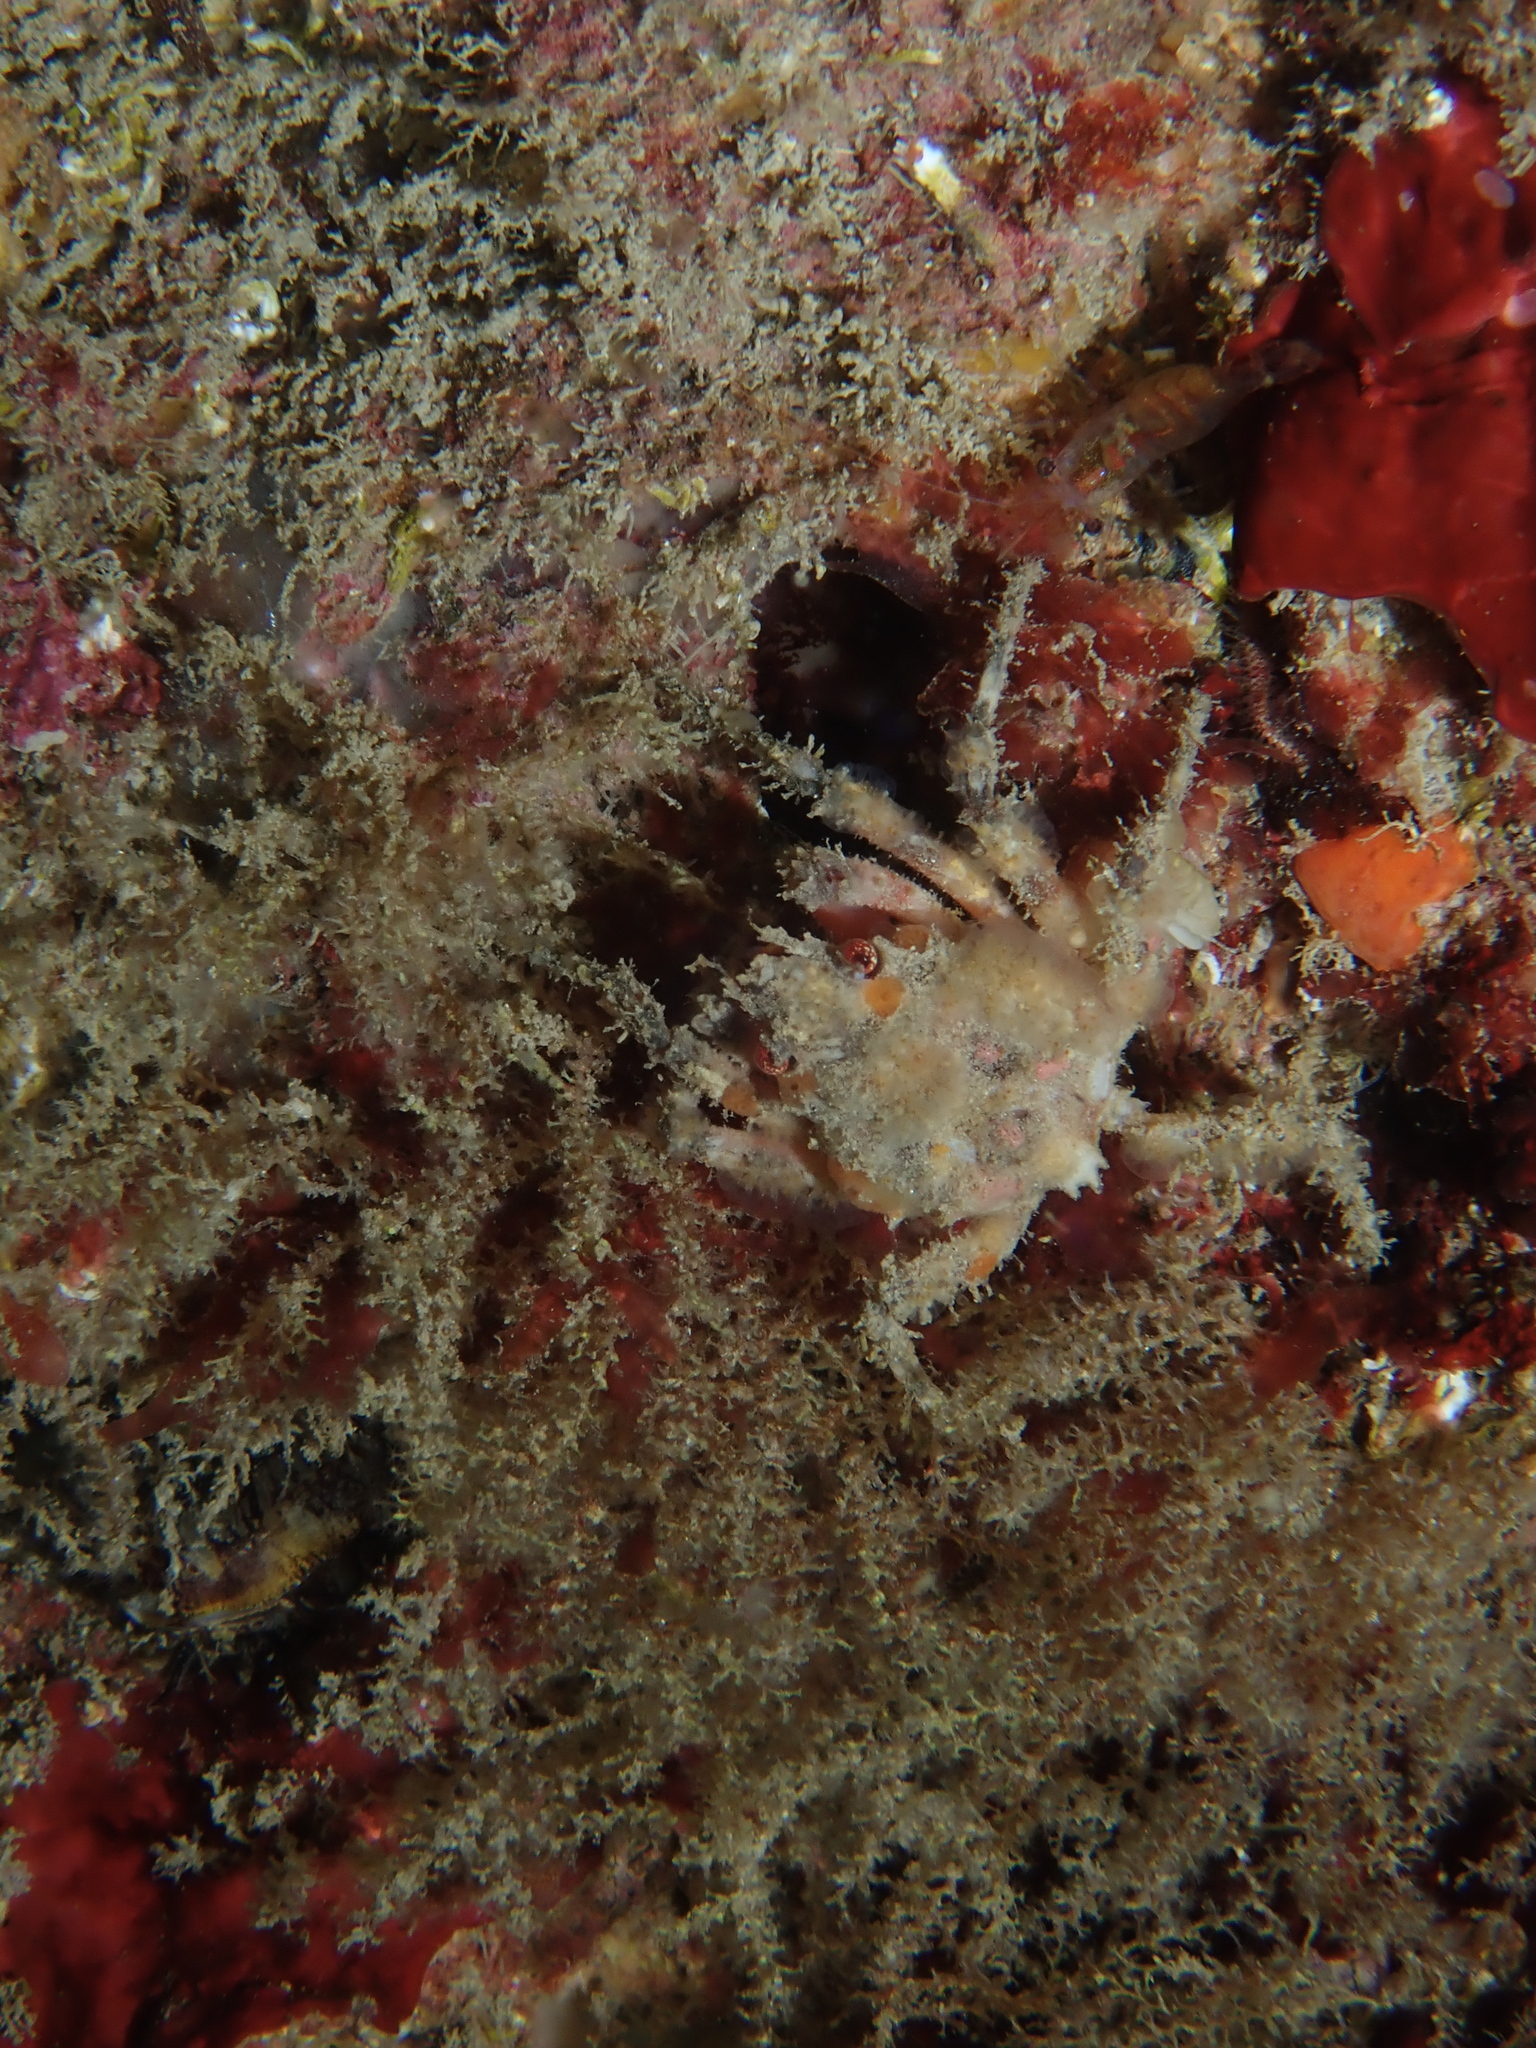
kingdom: Animalia
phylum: Arthropoda
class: Malacostraca
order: Decapoda
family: Epialtidae
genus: Herbstia
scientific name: Herbstia condyliata
